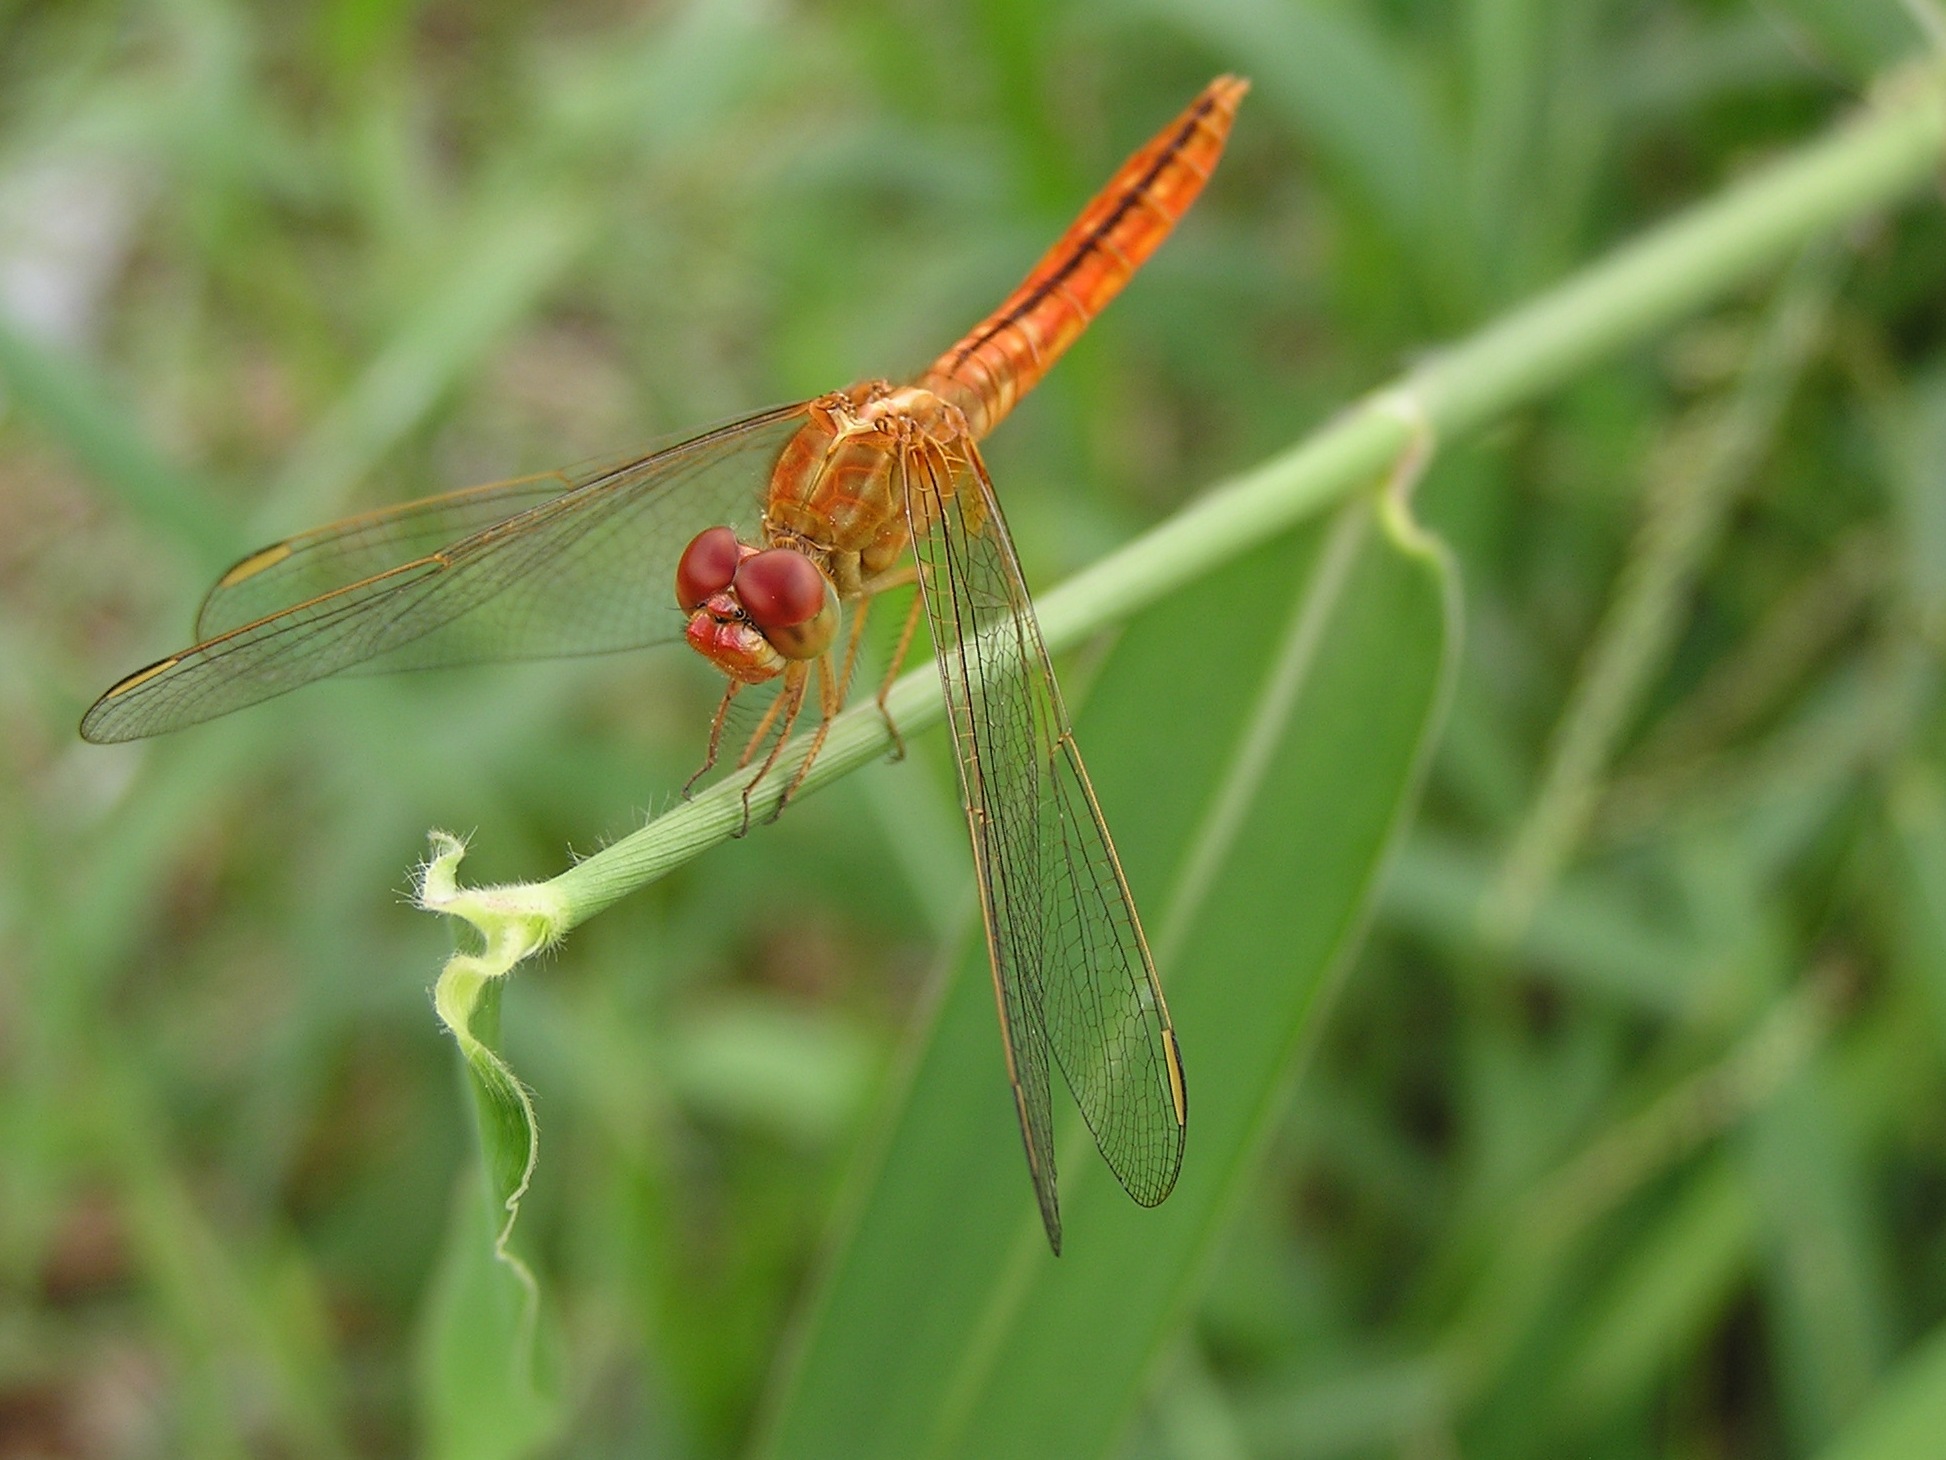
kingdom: Animalia
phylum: Arthropoda
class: Insecta
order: Odonata
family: Libellulidae
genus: Crocothemis
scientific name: Crocothemis servilia
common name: Scarlet skimmer
